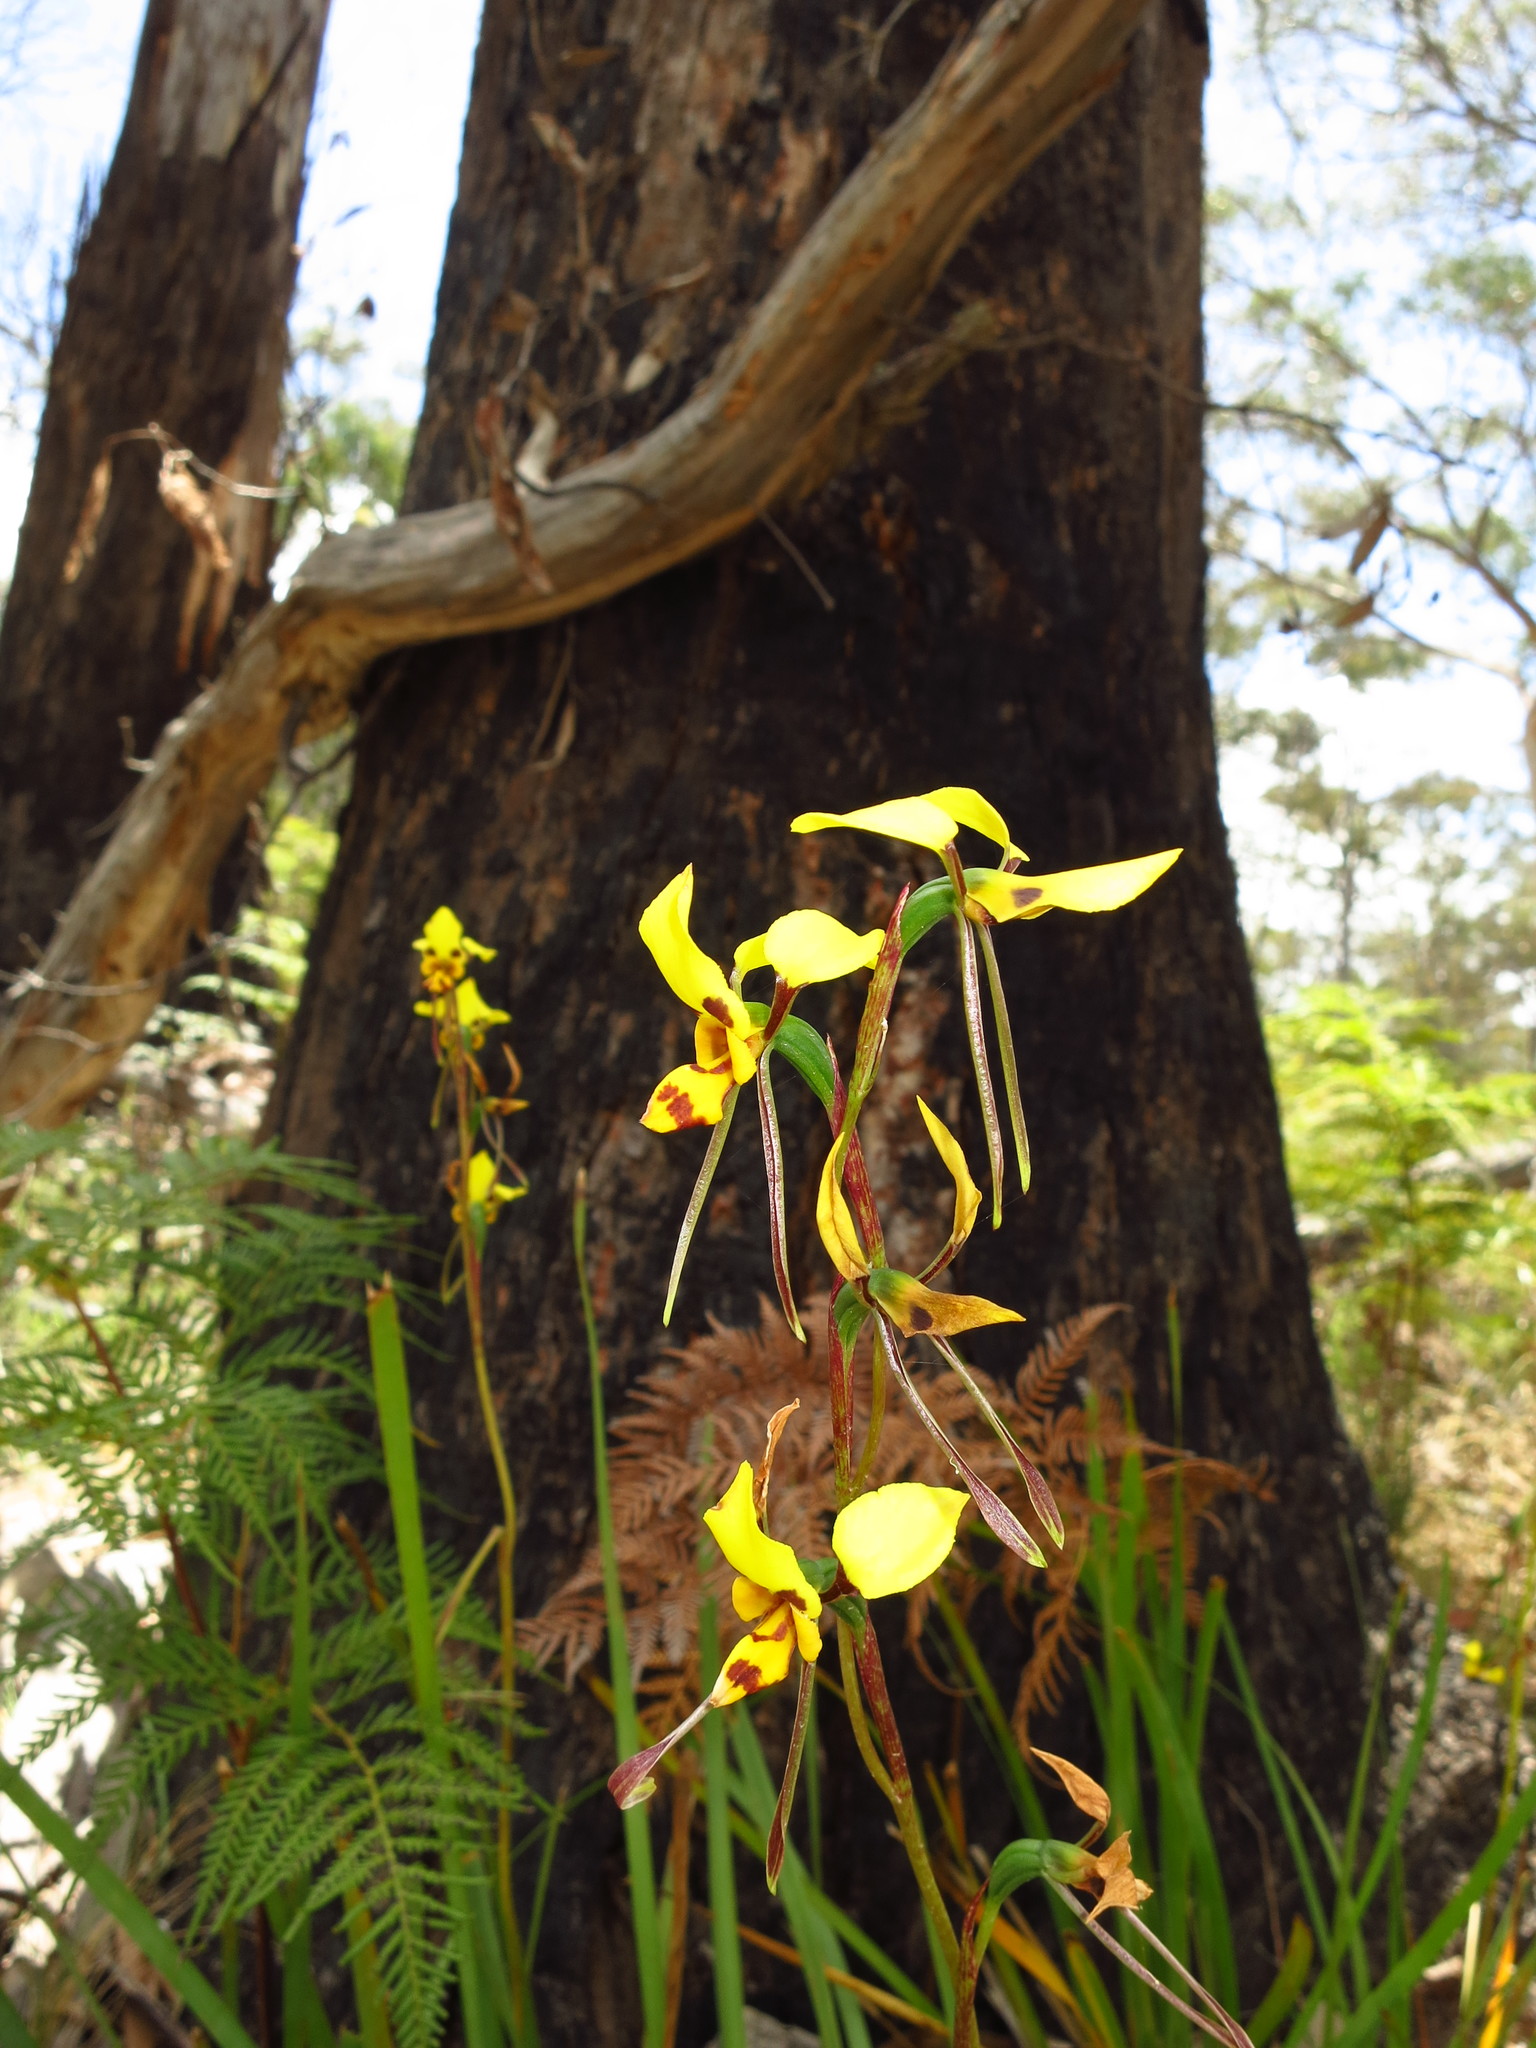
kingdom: Plantae
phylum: Tracheophyta
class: Liliopsida
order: Asparagales
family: Orchidaceae
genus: Diuris
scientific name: Diuris sulphurea
